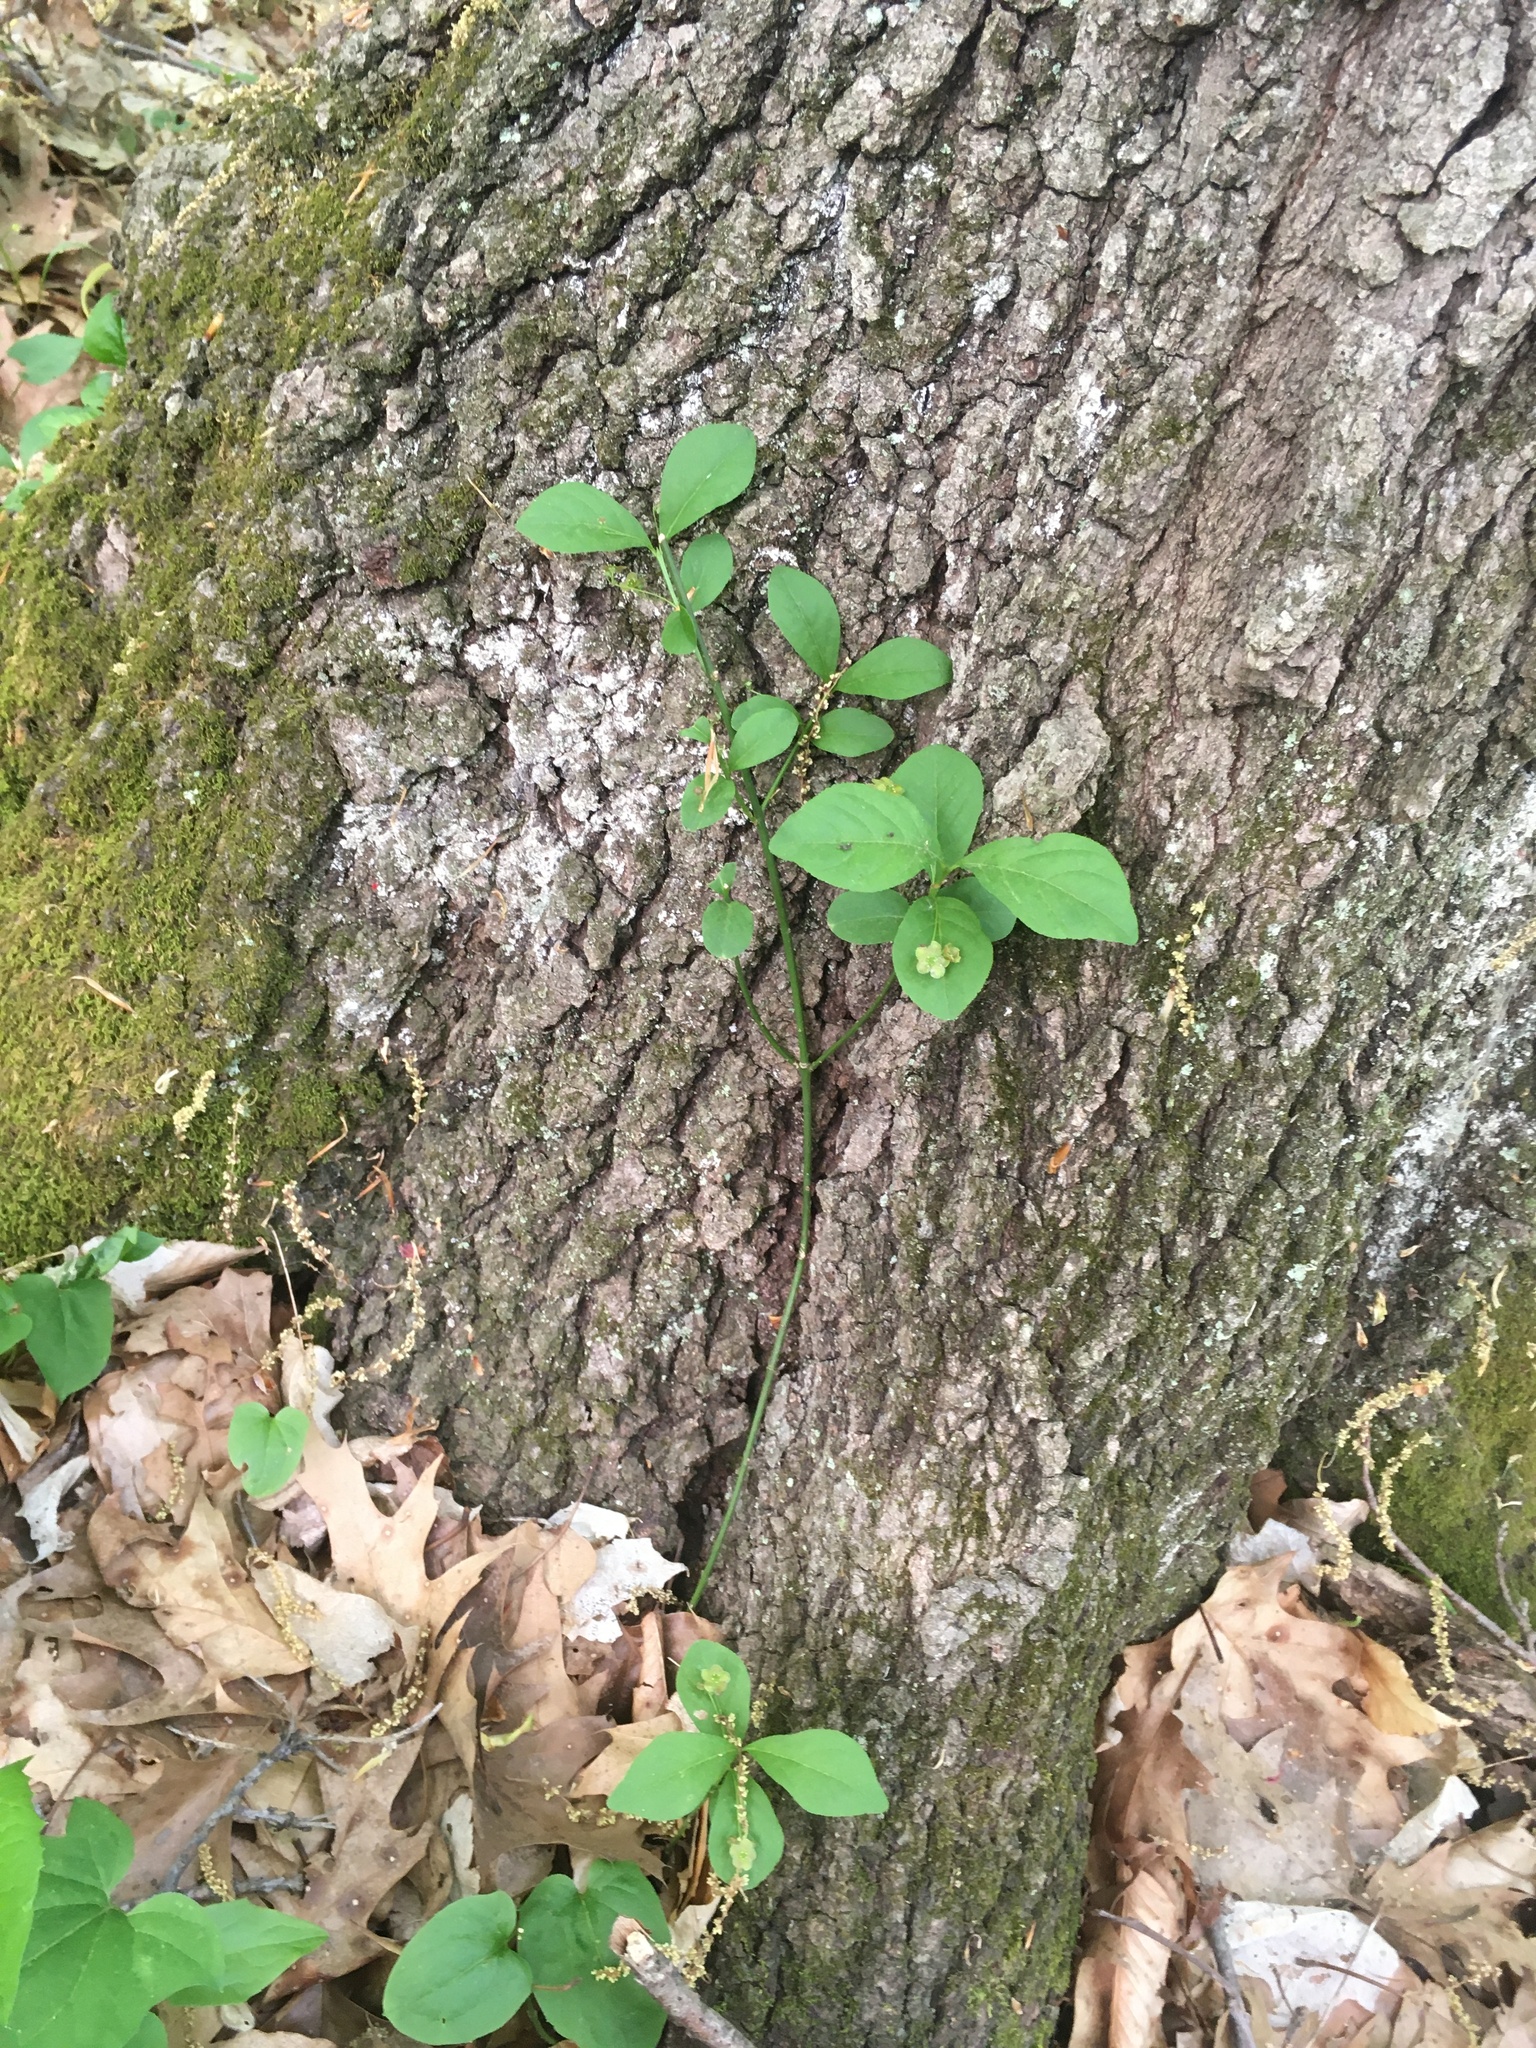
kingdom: Plantae
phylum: Tracheophyta
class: Magnoliopsida
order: Celastrales
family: Celastraceae
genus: Euonymus
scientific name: Euonymus obovatus
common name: Running strawberry-bush
